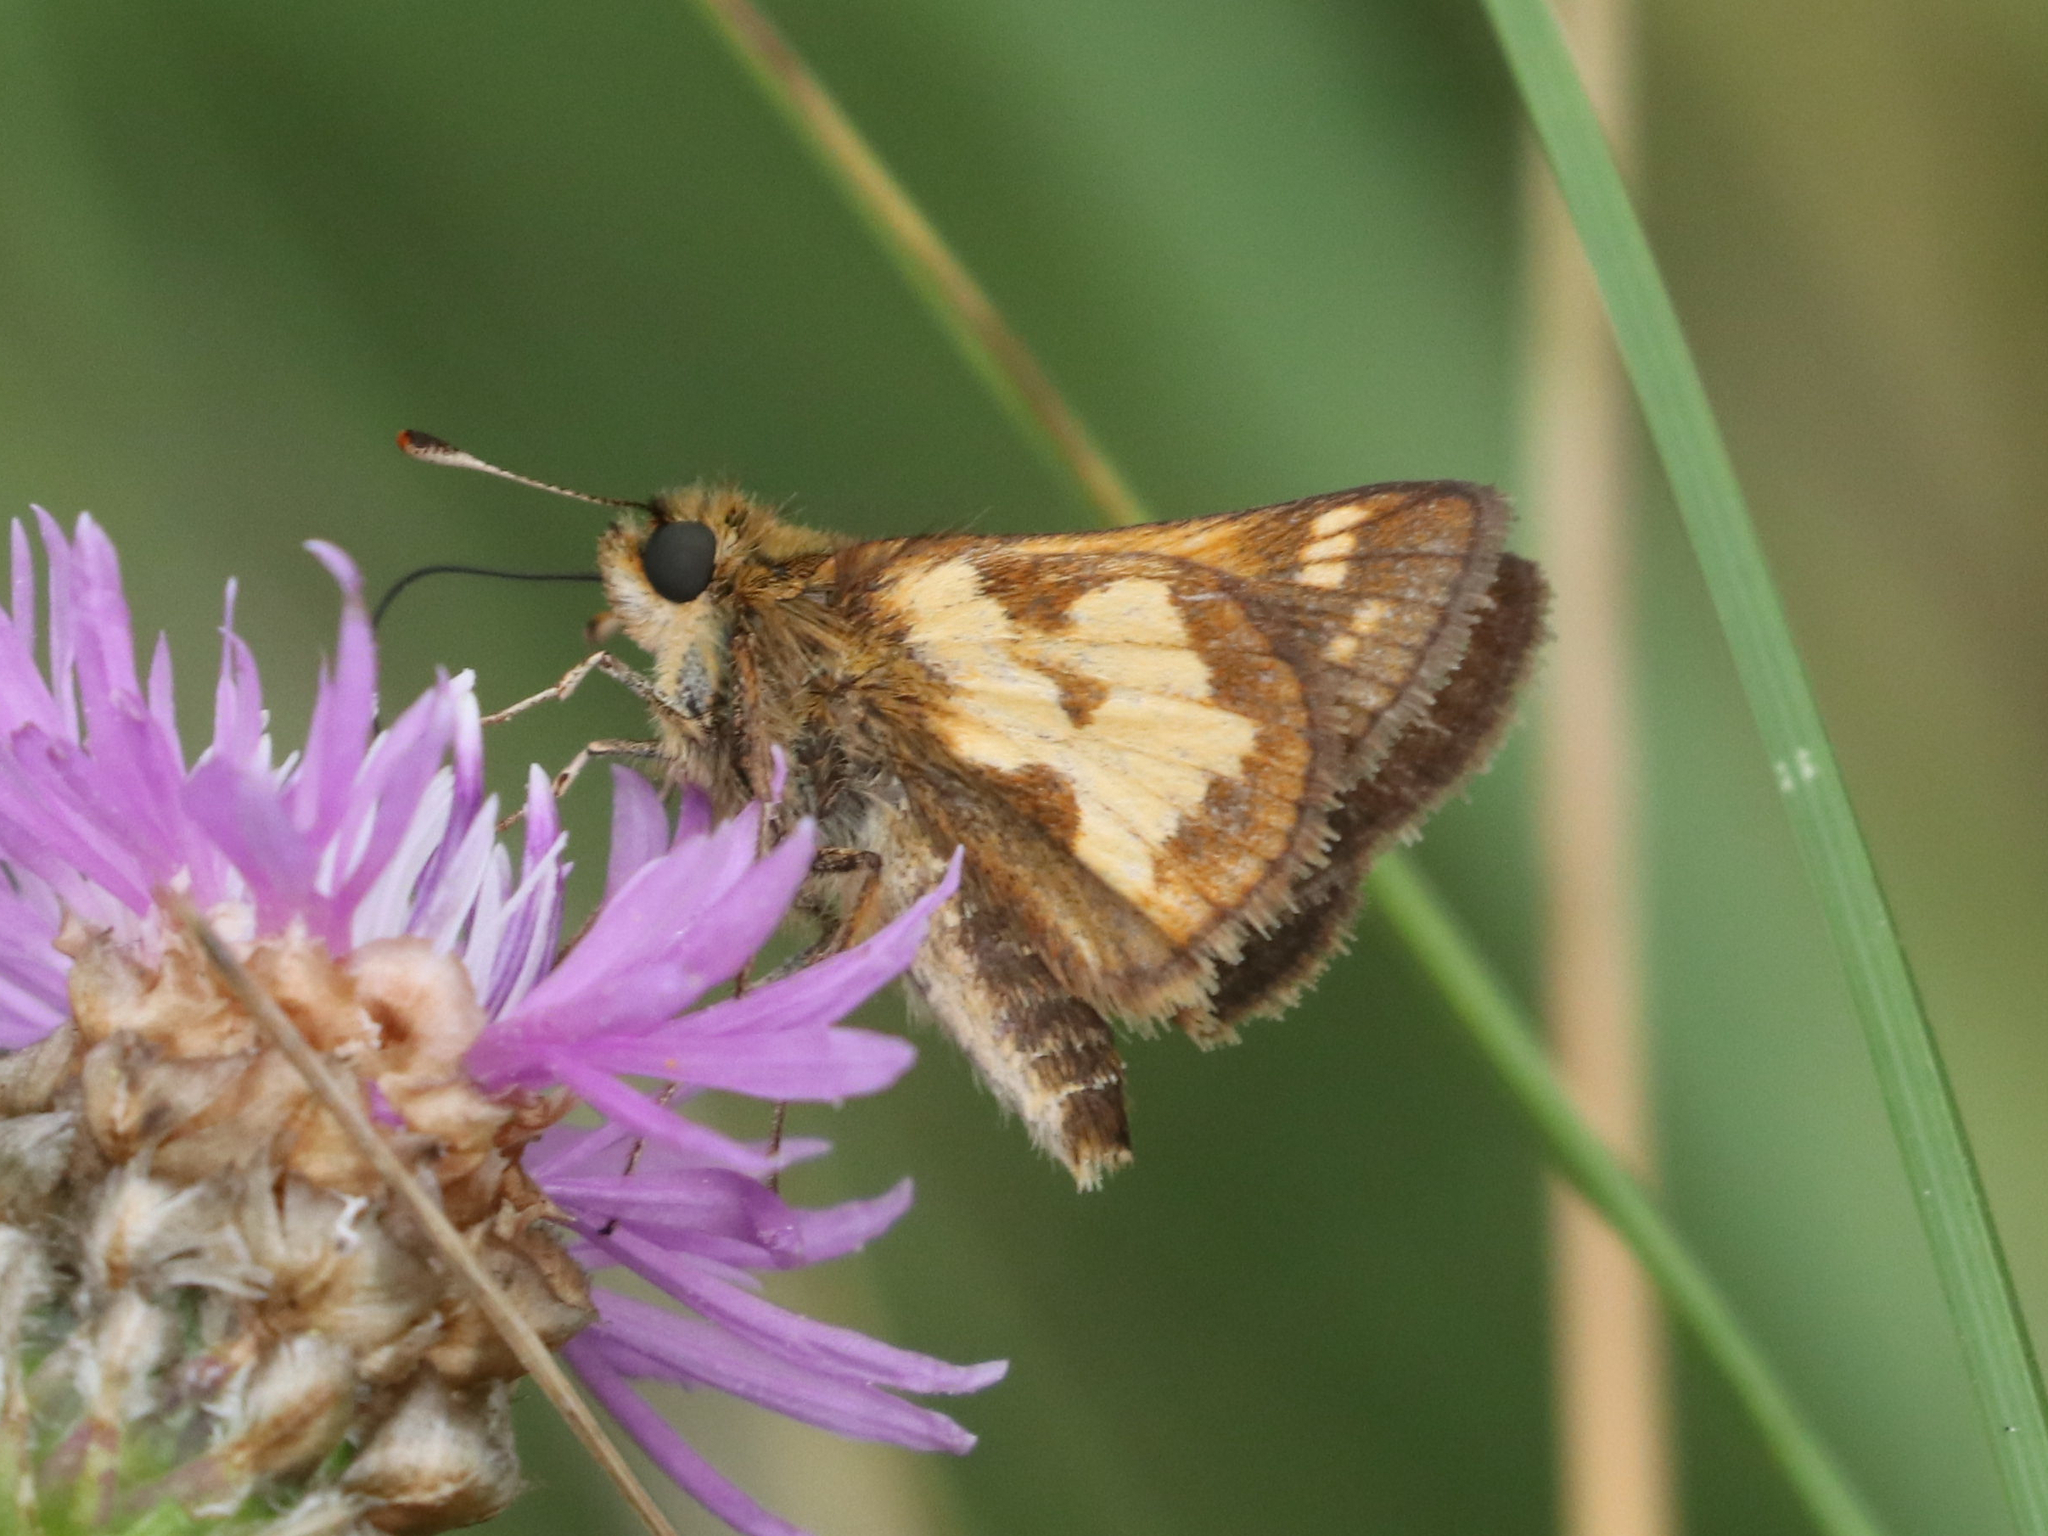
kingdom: Animalia
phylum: Arthropoda
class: Insecta
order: Lepidoptera
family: Hesperiidae
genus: Polites
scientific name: Polites coras
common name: Peck's skipper
